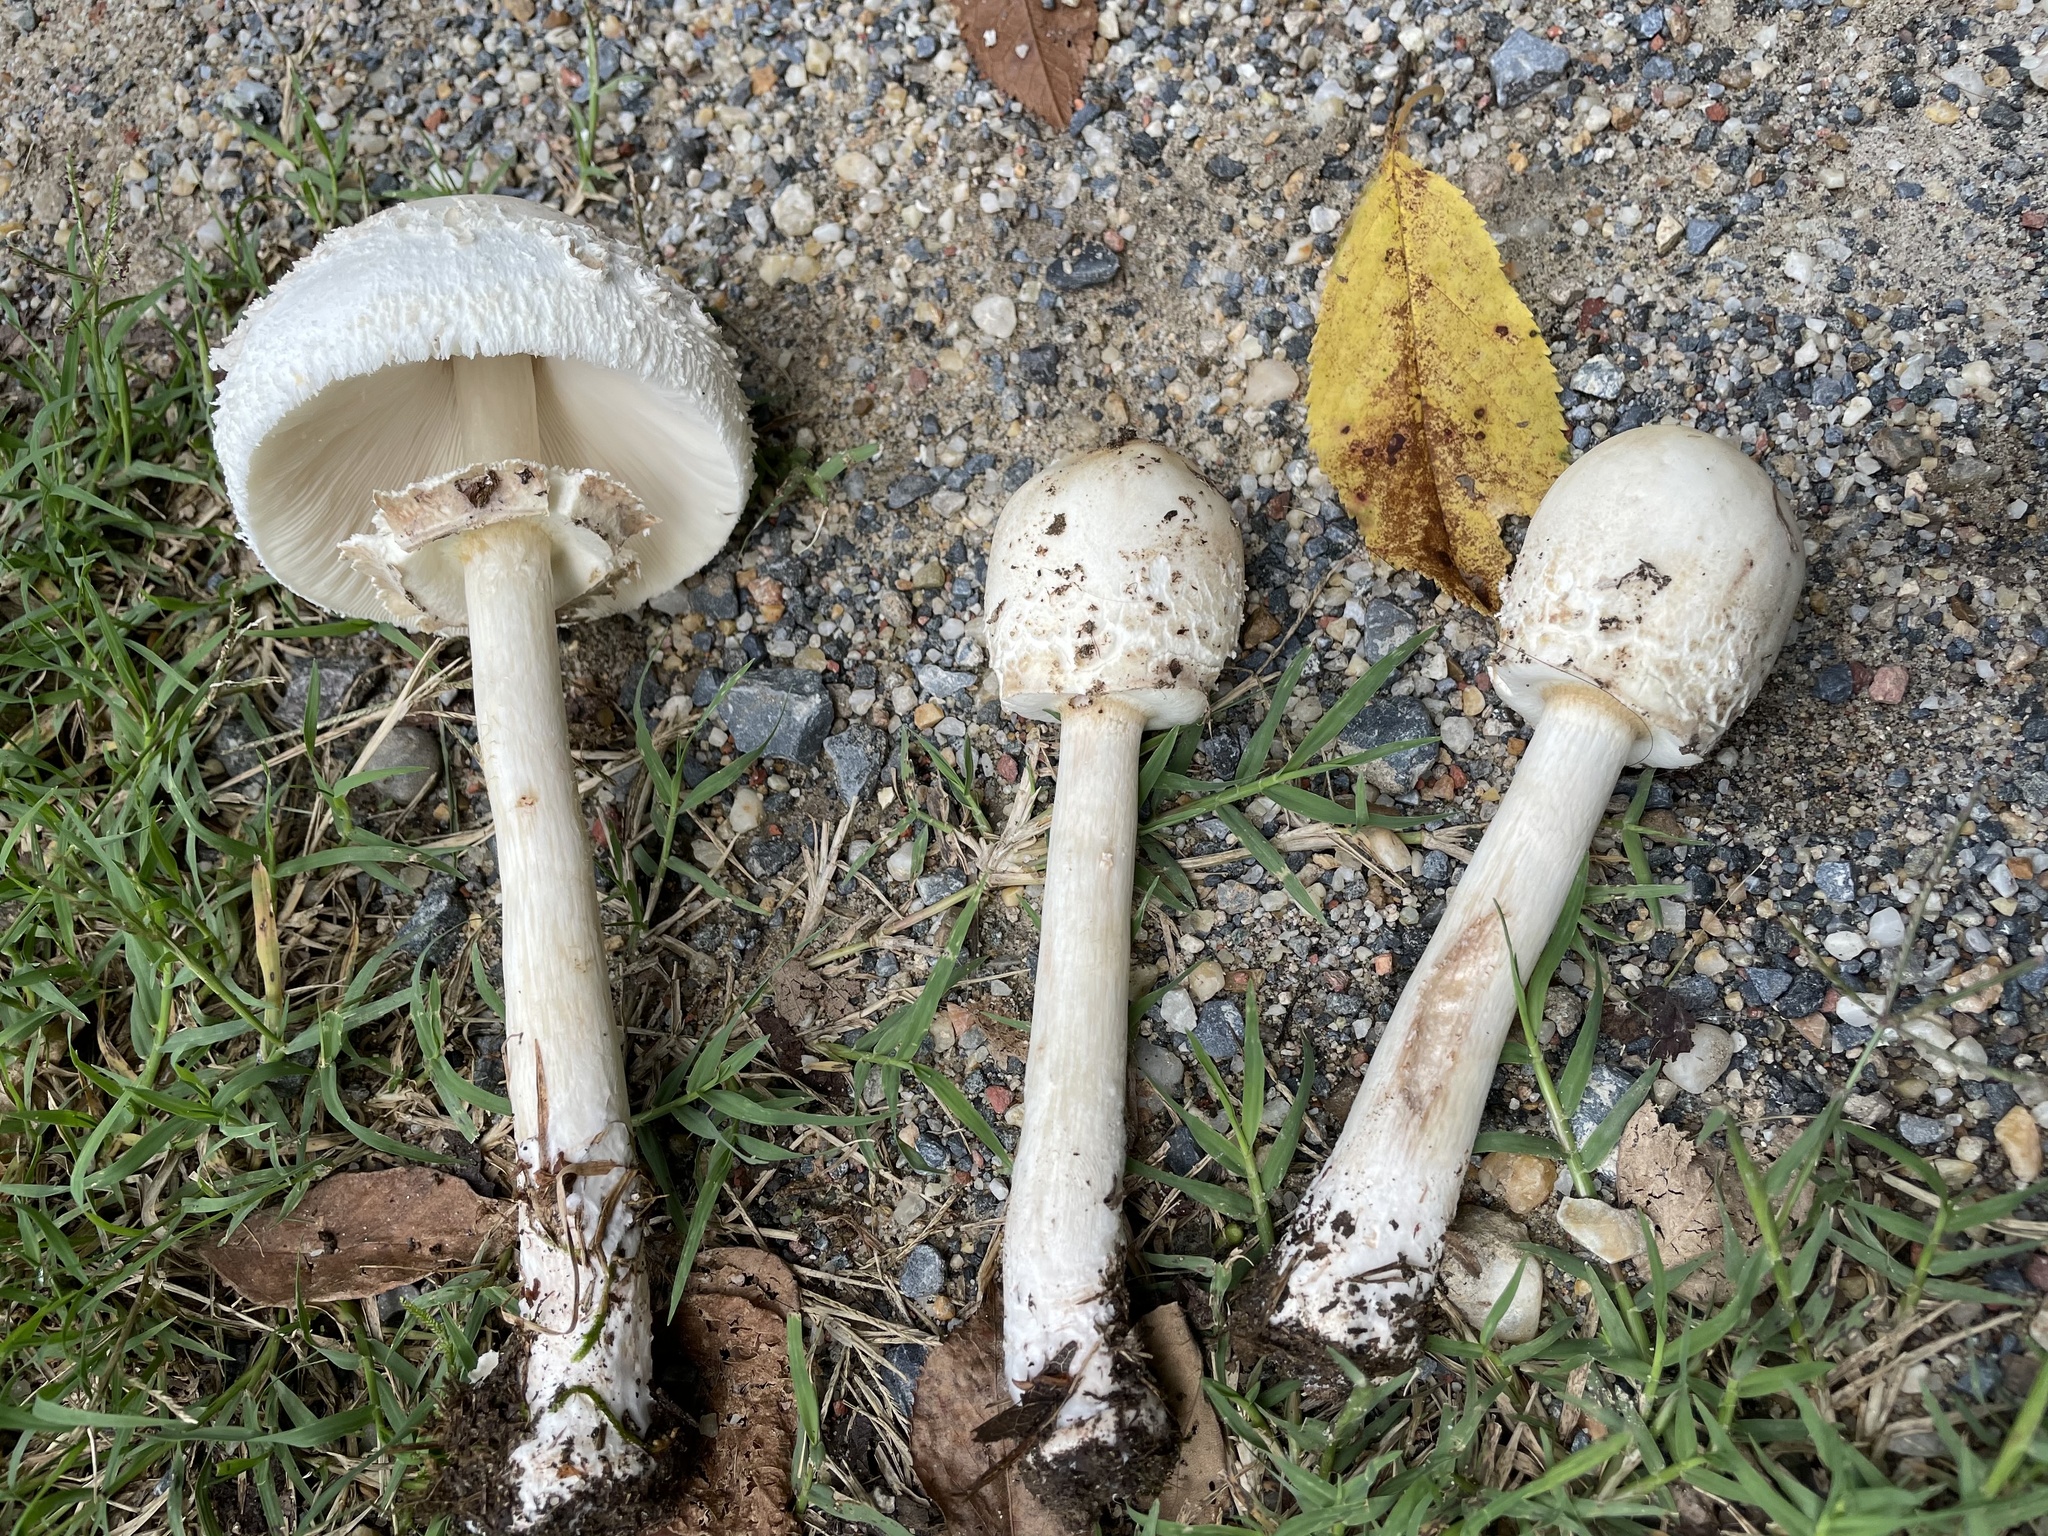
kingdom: Fungi
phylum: Basidiomycota
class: Agaricomycetes
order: Agaricales
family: Agaricaceae
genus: Chlorophyllum
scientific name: Chlorophyllum molybdites
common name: False parasol
